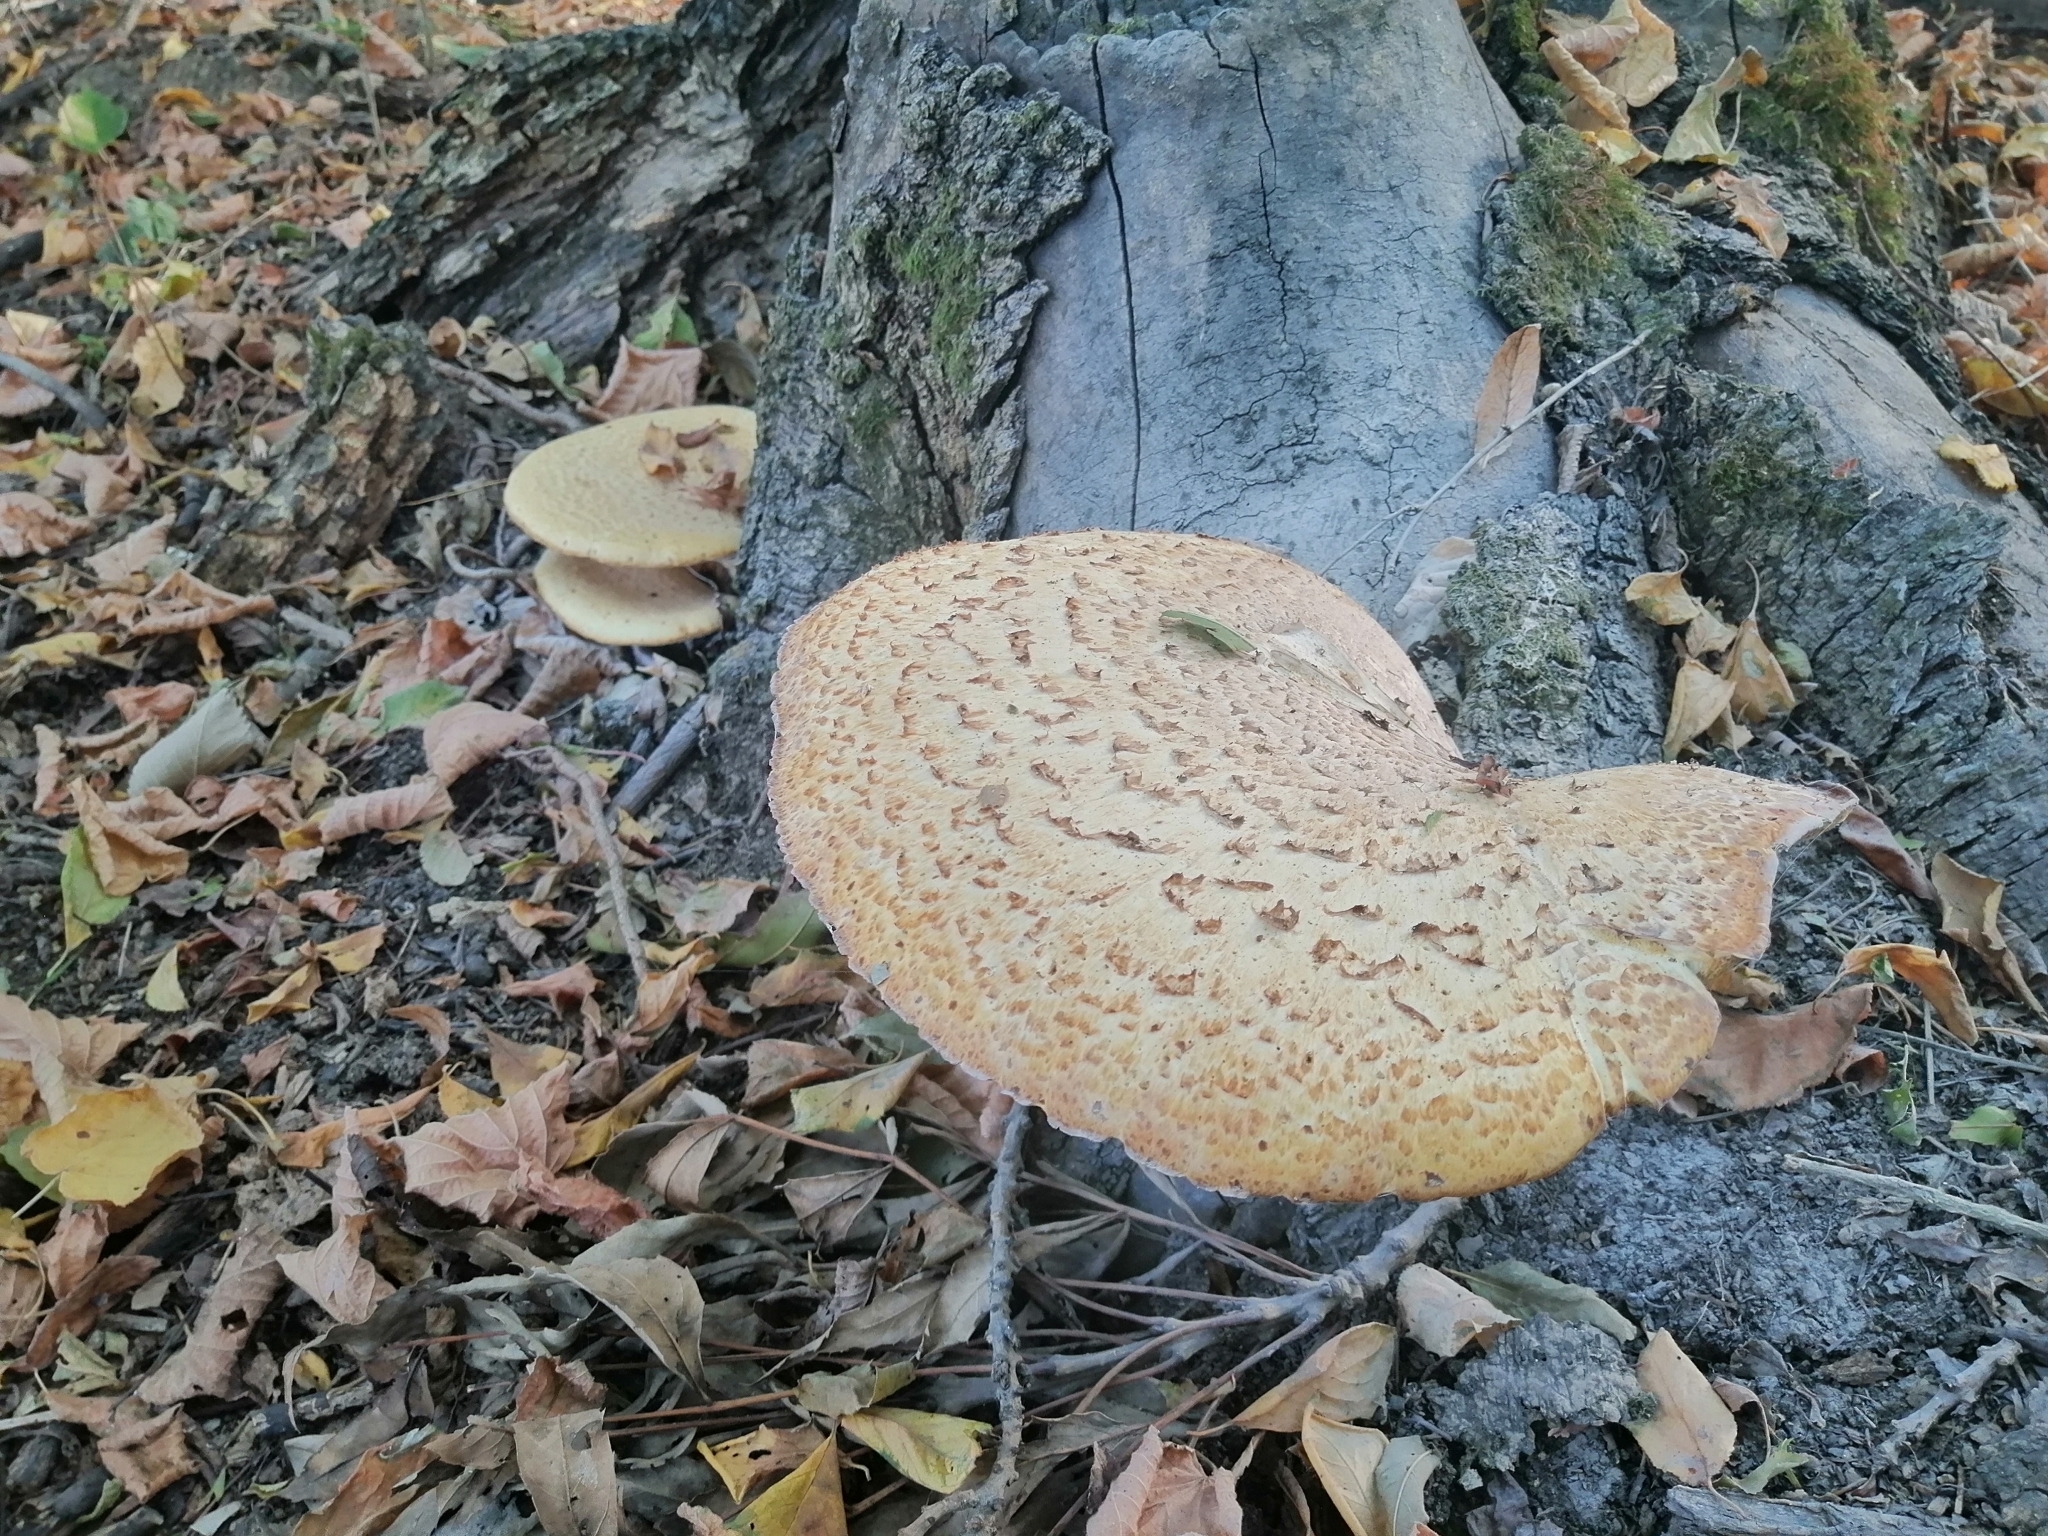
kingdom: Fungi
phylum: Basidiomycota
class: Agaricomycetes
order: Polyporales
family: Polyporaceae
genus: Cerioporus
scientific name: Cerioporus squamosus
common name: Dryad's saddle
